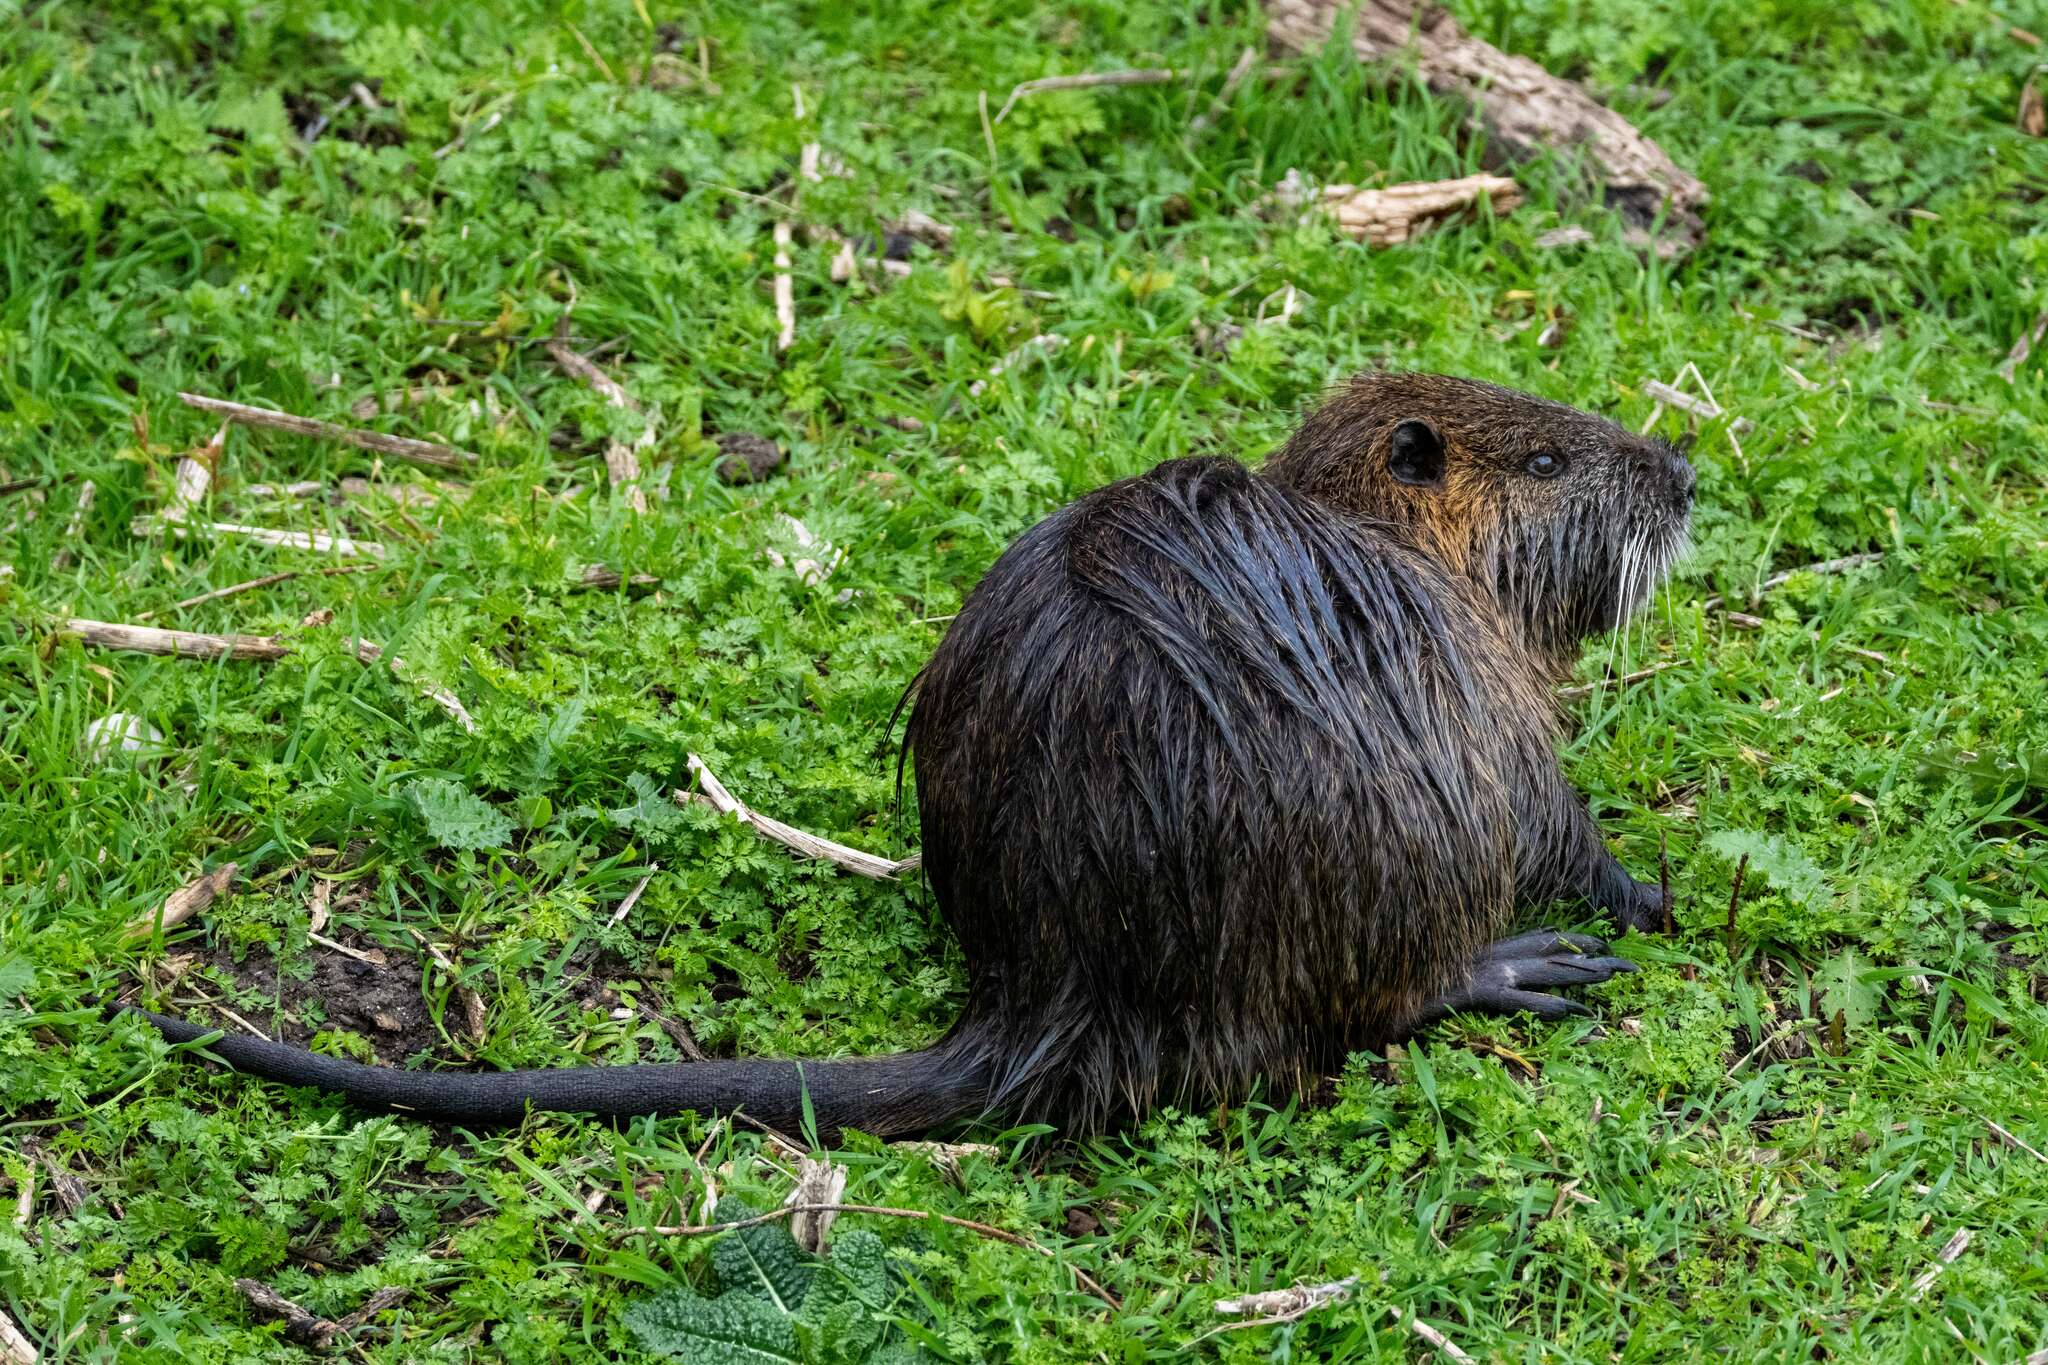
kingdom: Animalia
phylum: Chordata
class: Mammalia
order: Rodentia
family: Myocastoridae
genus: Myocastor
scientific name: Myocastor coypus
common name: Coypu
